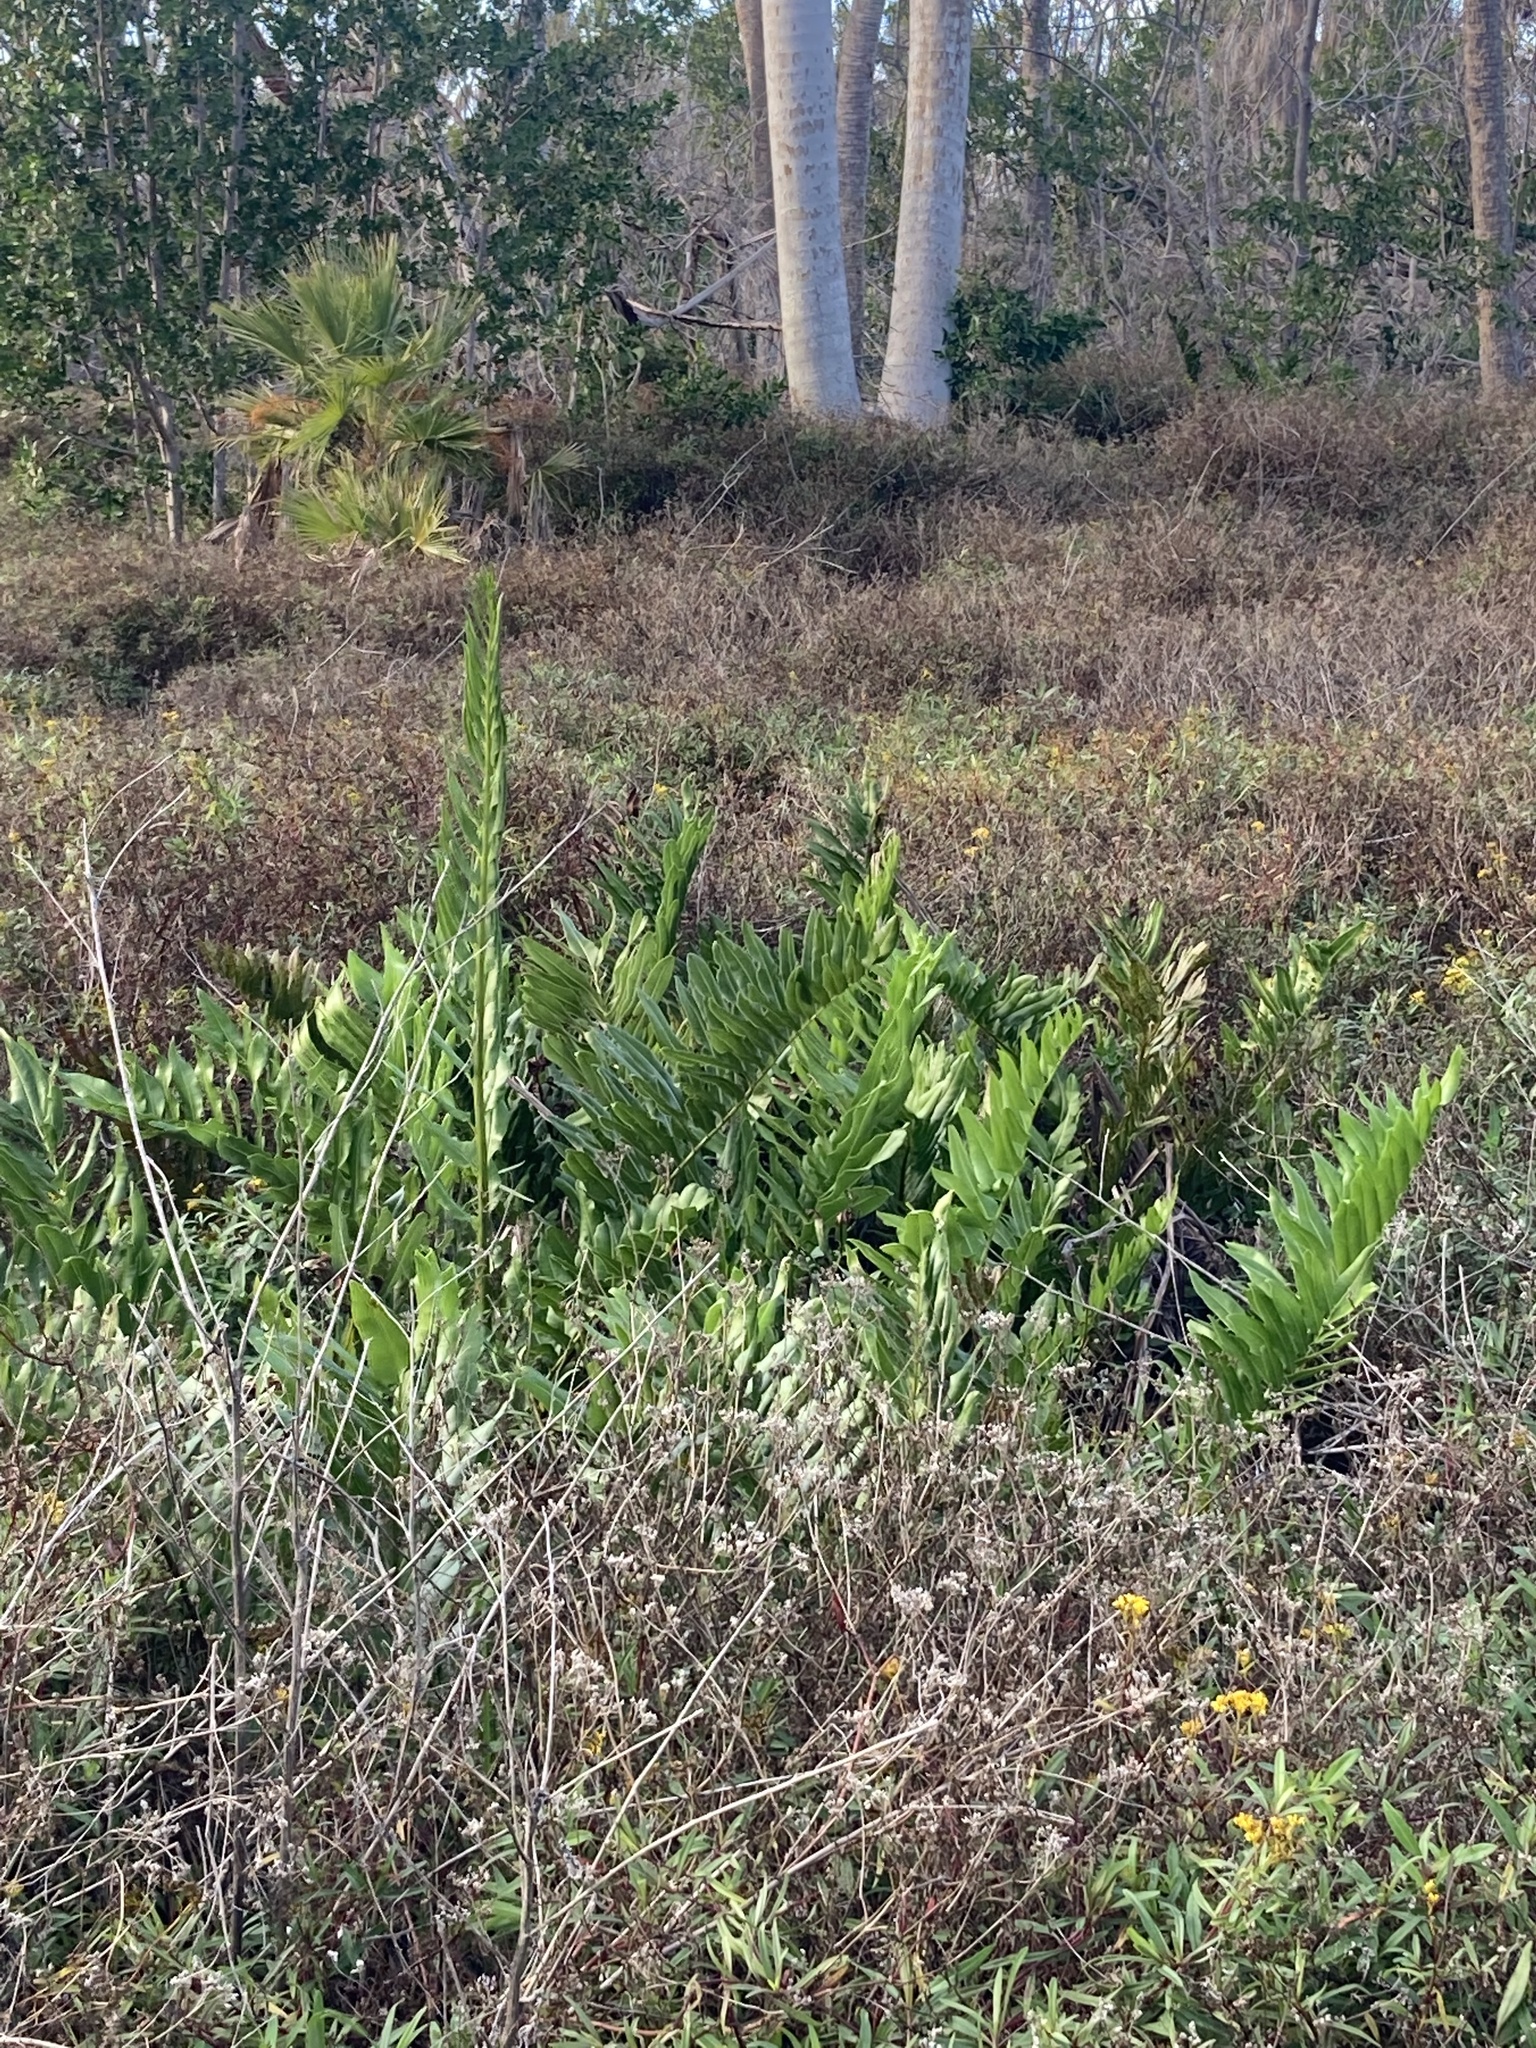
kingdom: Plantae
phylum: Tracheophyta
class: Polypodiopsida
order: Polypodiales
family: Pteridaceae
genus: Acrostichum
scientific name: Acrostichum danaeifolium
